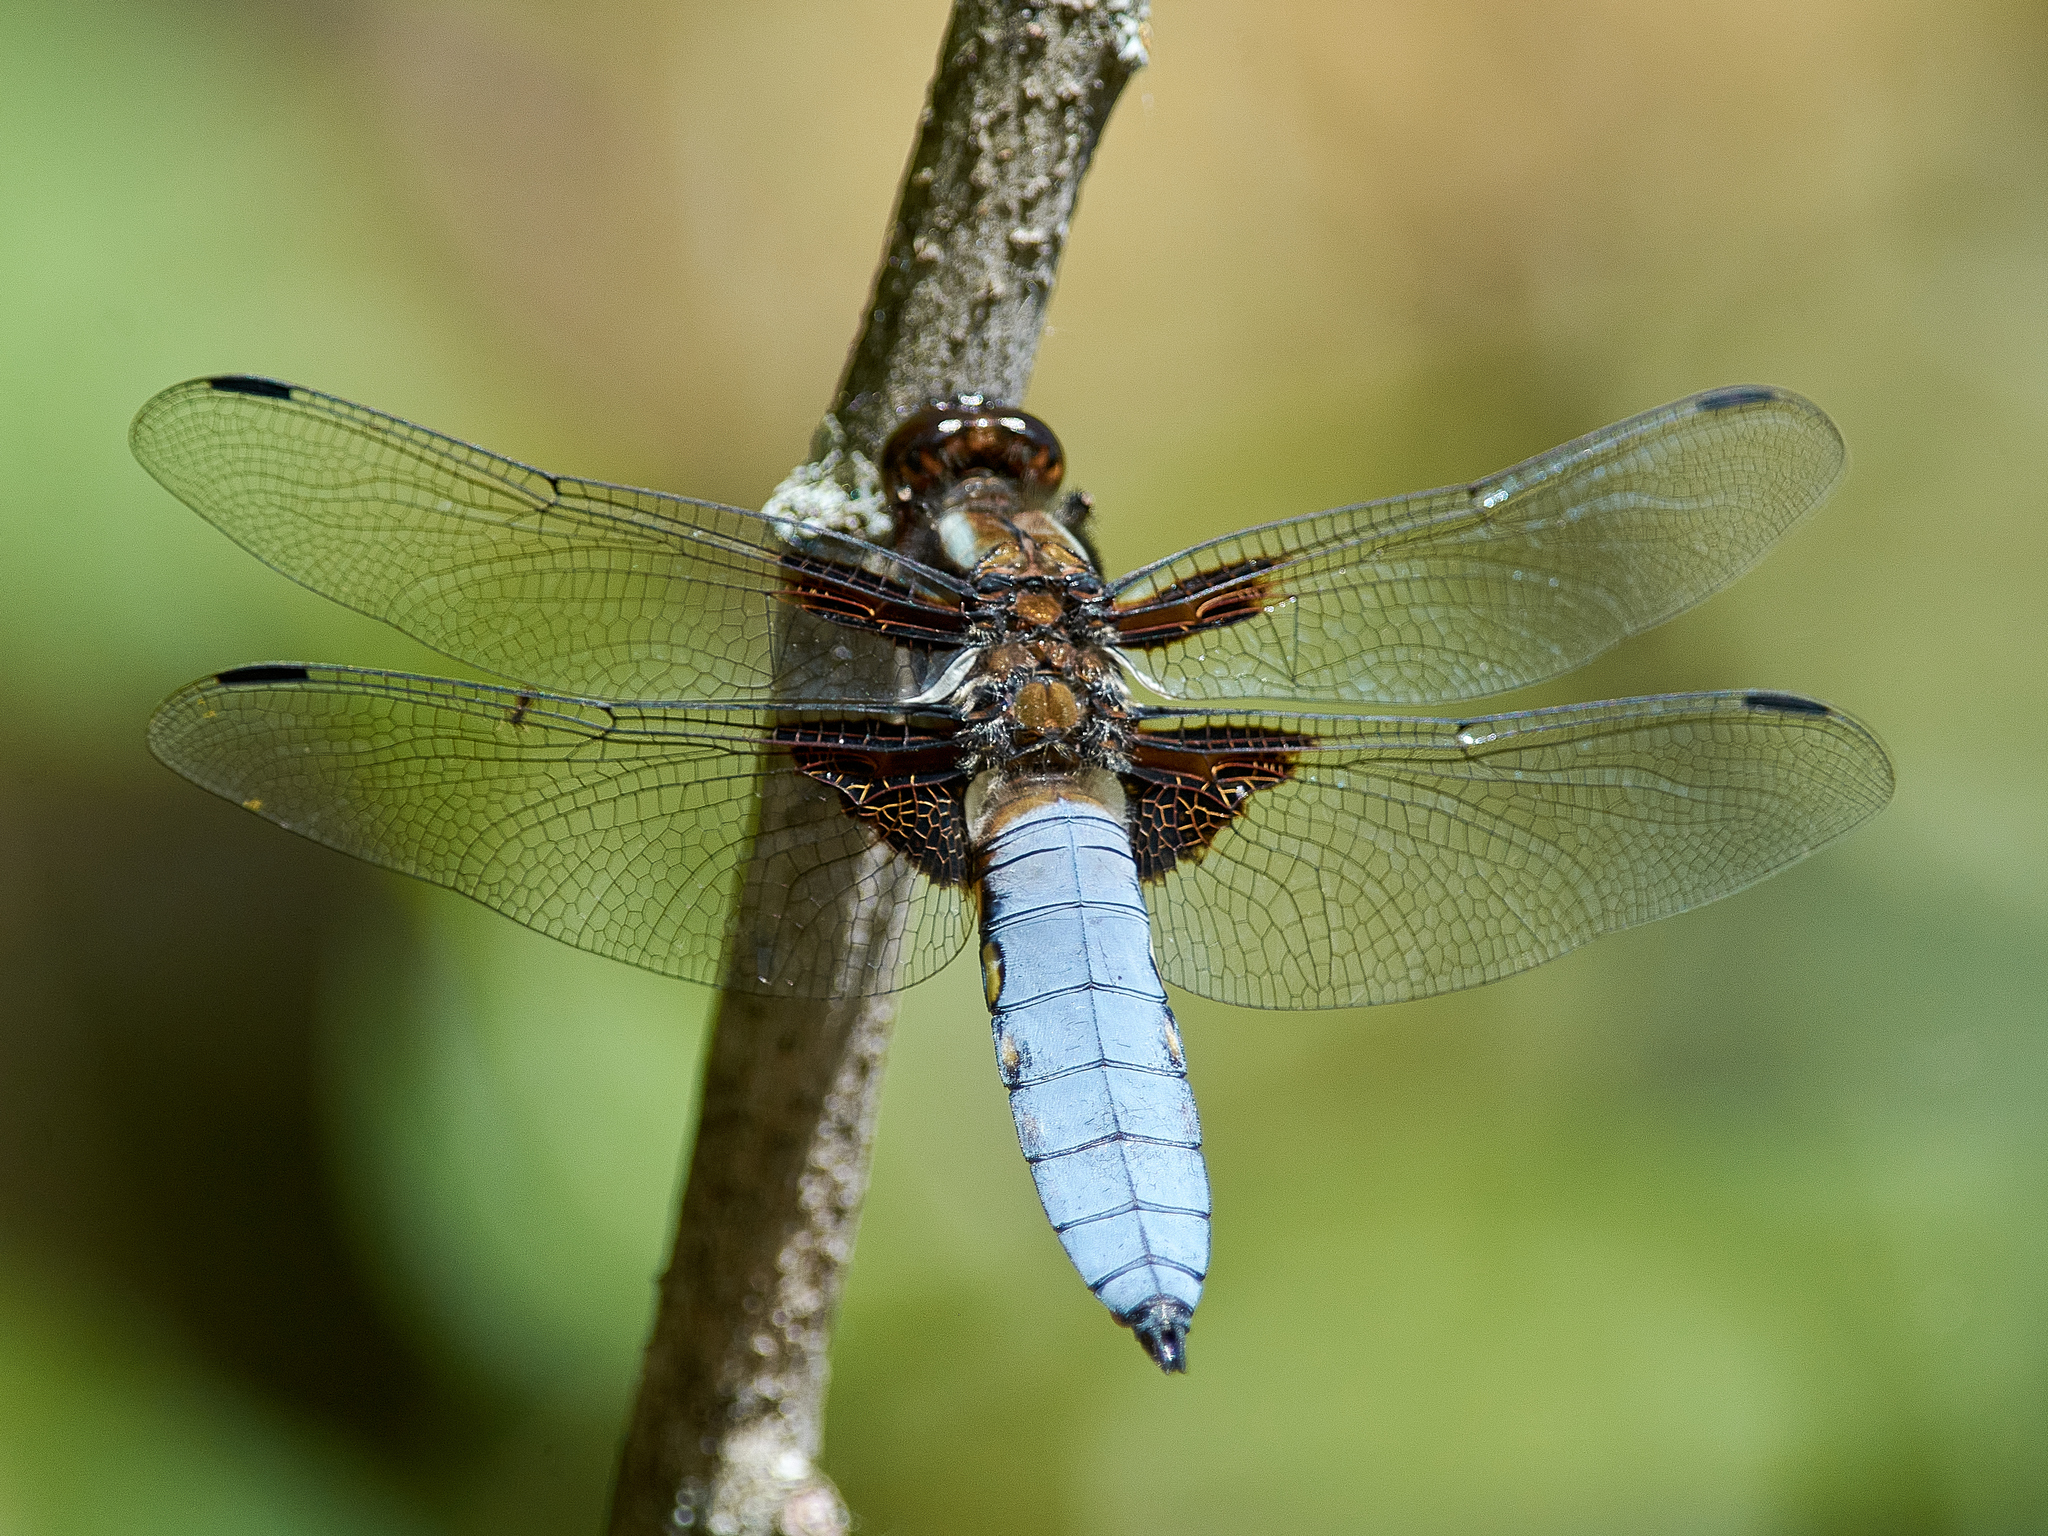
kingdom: Animalia
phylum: Arthropoda
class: Insecta
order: Odonata
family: Libellulidae
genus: Libellula
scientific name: Libellula depressa
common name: Broad-bodied chaser
